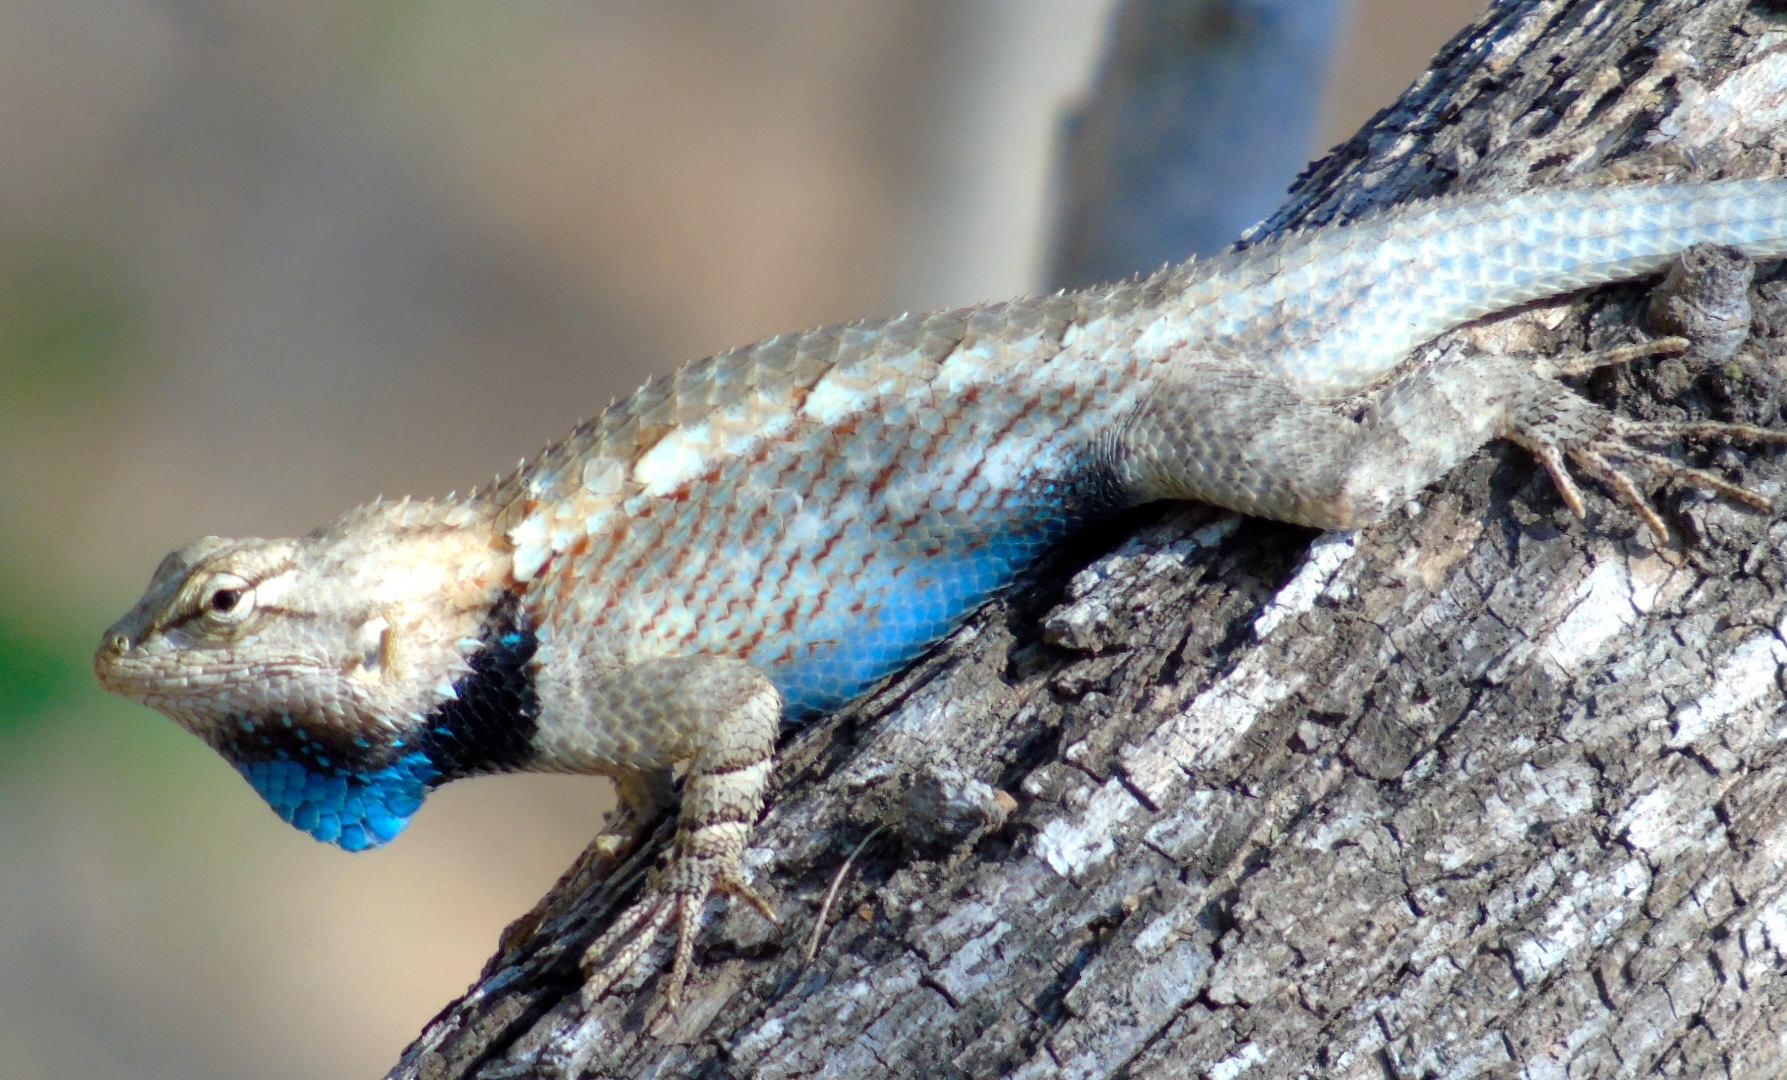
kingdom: Animalia
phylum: Chordata
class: Squamata
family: Phrynosomatidae
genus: Sceloporus
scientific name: Sceloporus clarkii
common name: Clark's spiny lizard
